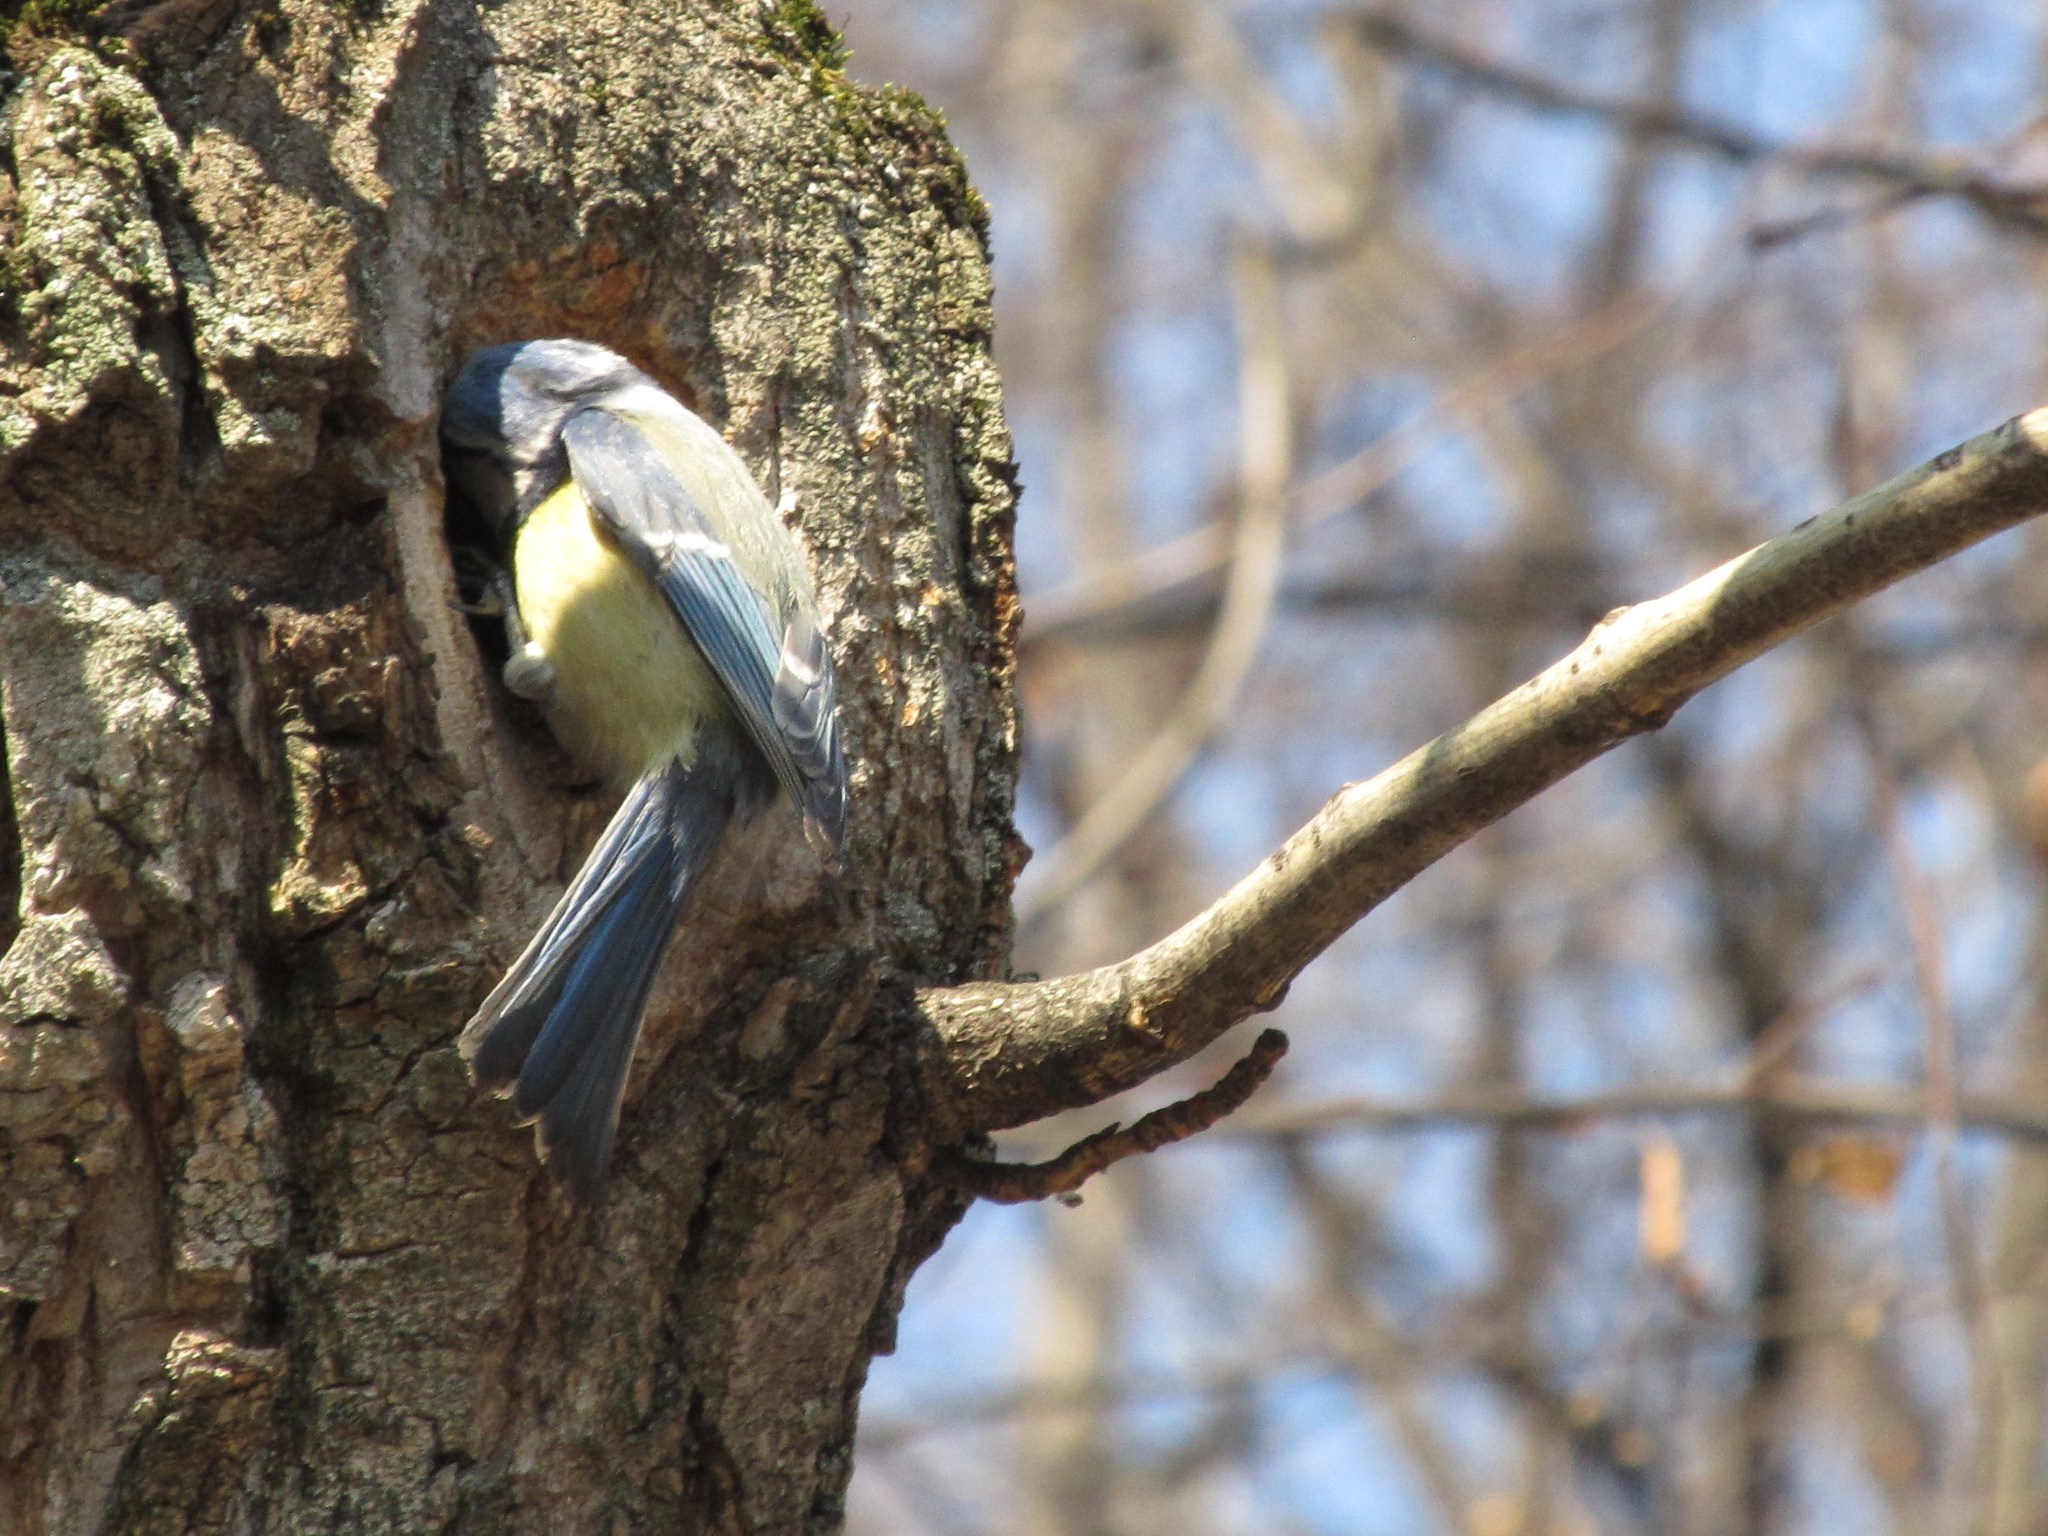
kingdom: Animalia
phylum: Chordata
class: Aves
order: Passeriformes
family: Paridae
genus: Cyanistes
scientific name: Cyanistes caeruleus
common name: Eurasian blue tit
